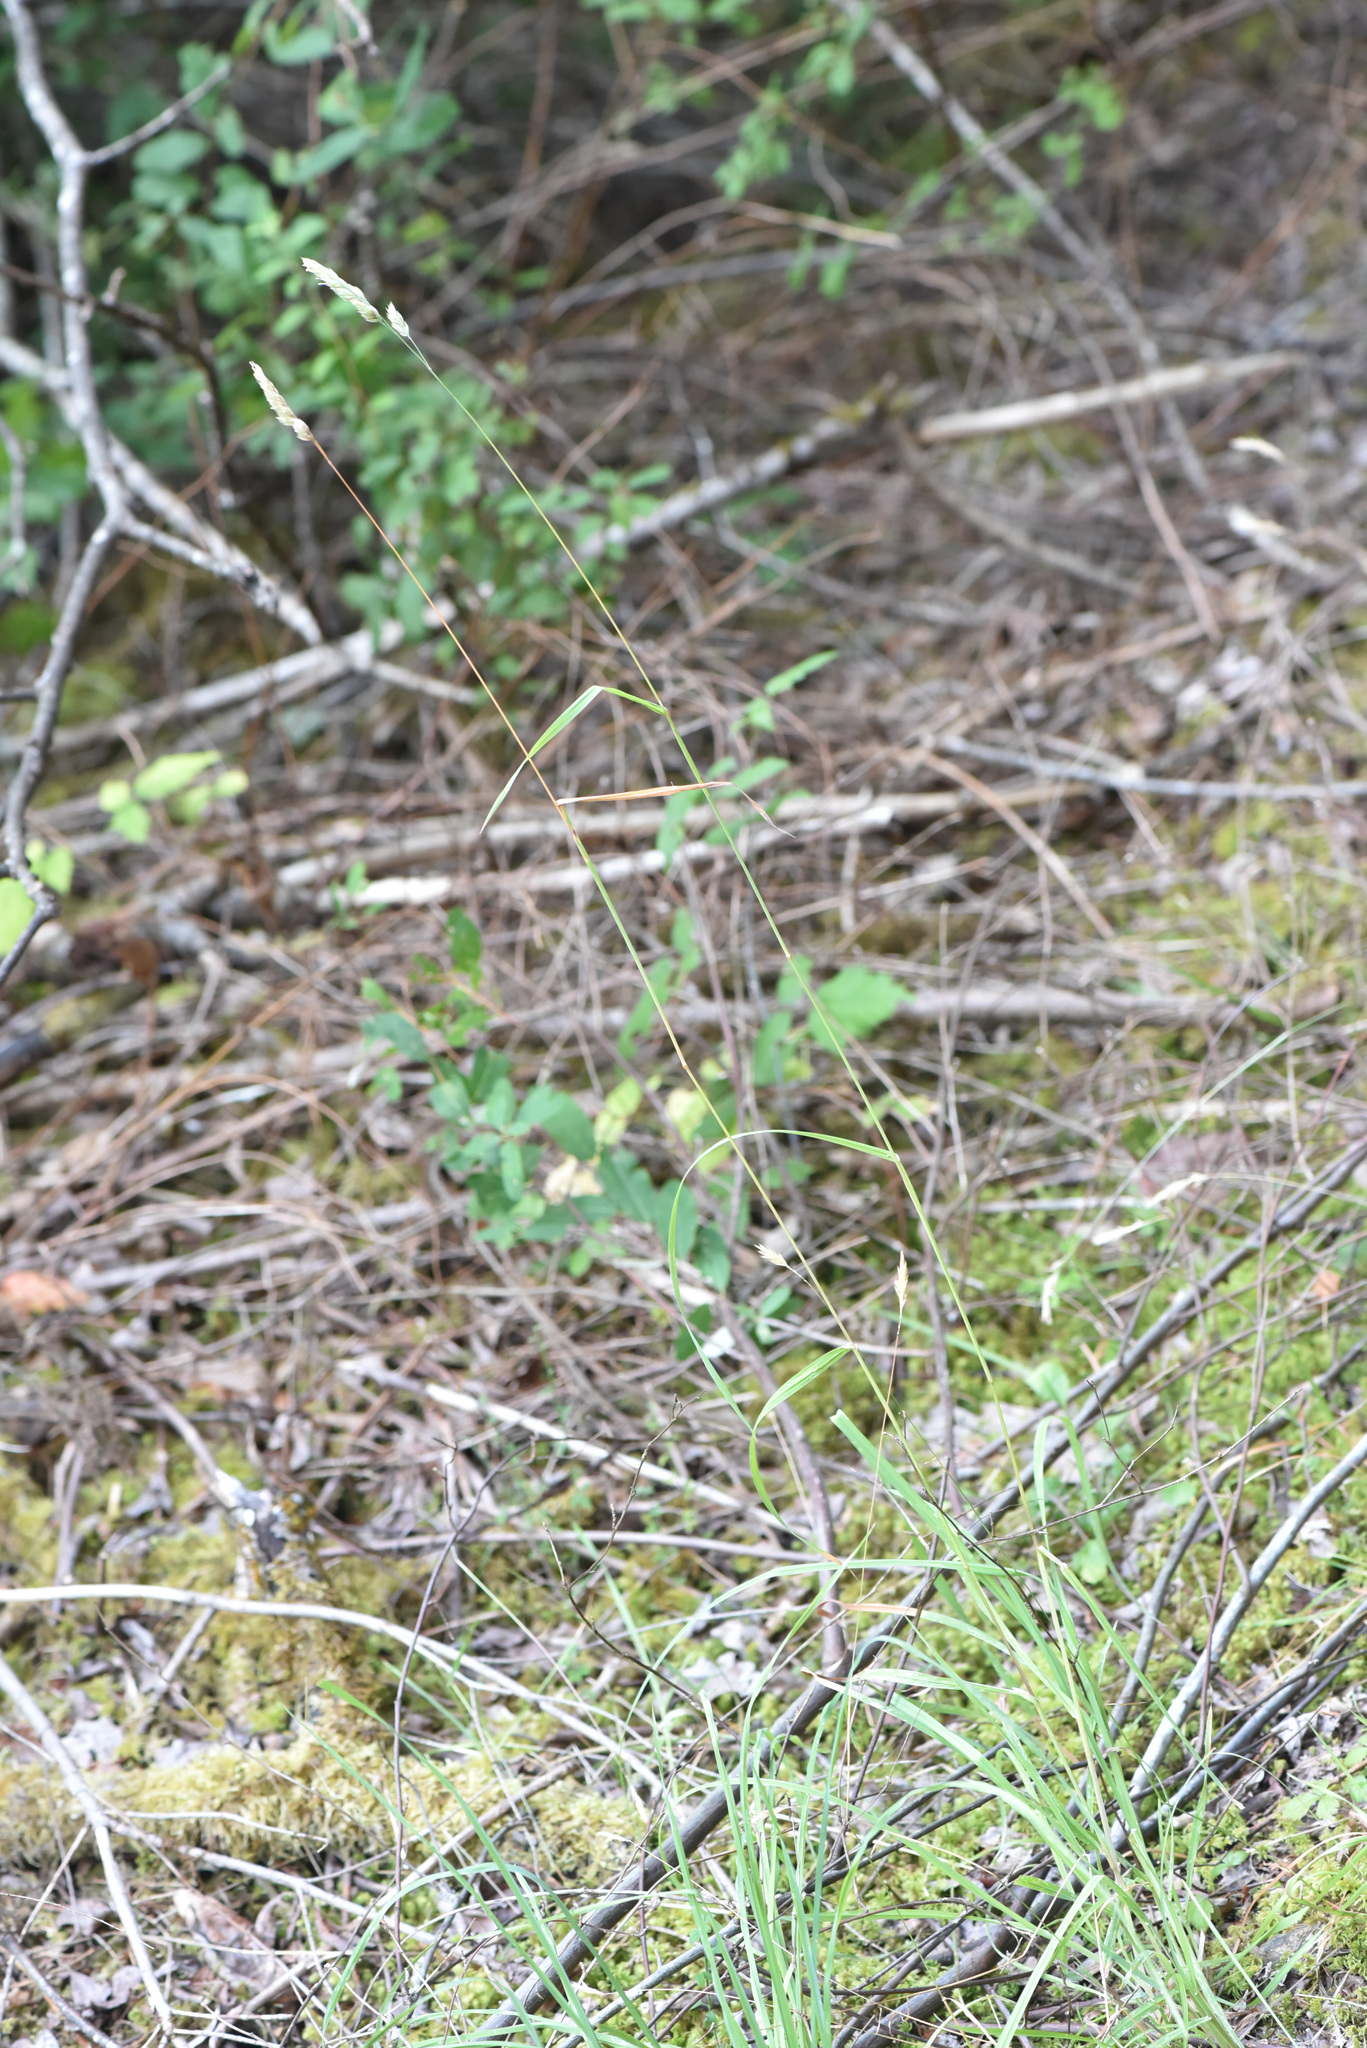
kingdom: Plantae
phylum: Tracheophyta
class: Liliopsida
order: Poales
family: Poaceae
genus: Dactylis
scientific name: Dactylis glomerata
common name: Orchardgrass
